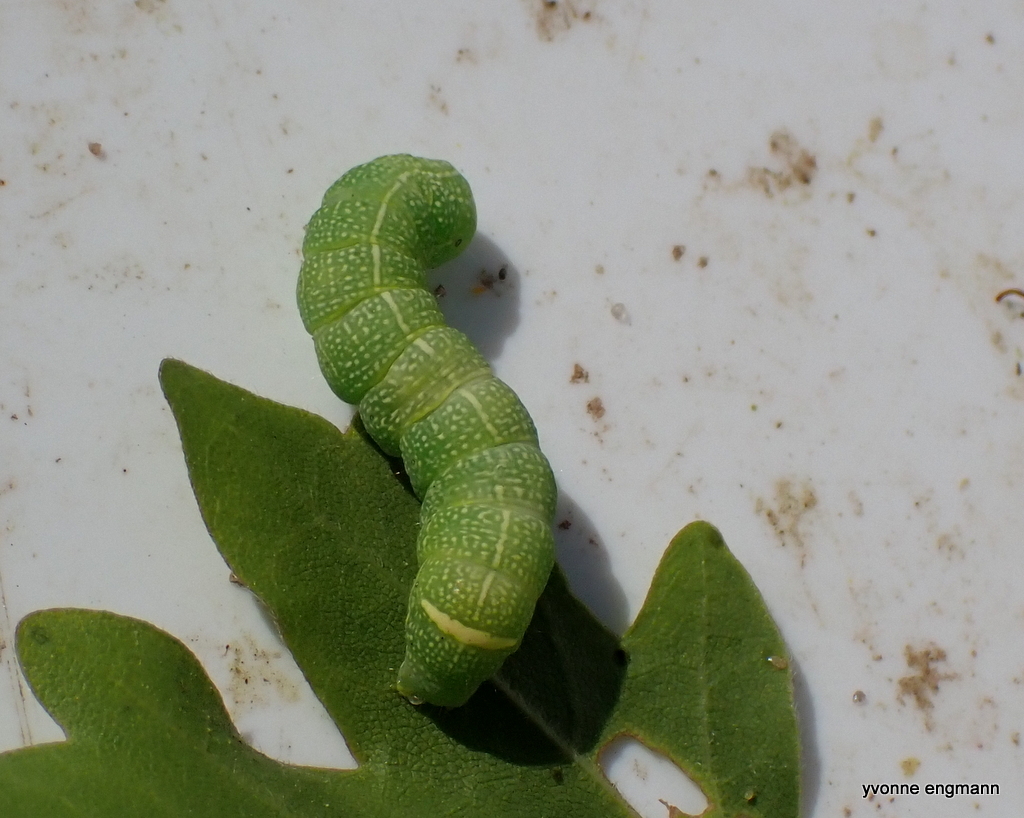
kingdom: Animalia
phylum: Arthropoda
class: Insecta
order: Lepidoptera
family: Noctuidae
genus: Orthosia
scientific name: Orthosia cerasi
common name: Common quaker
